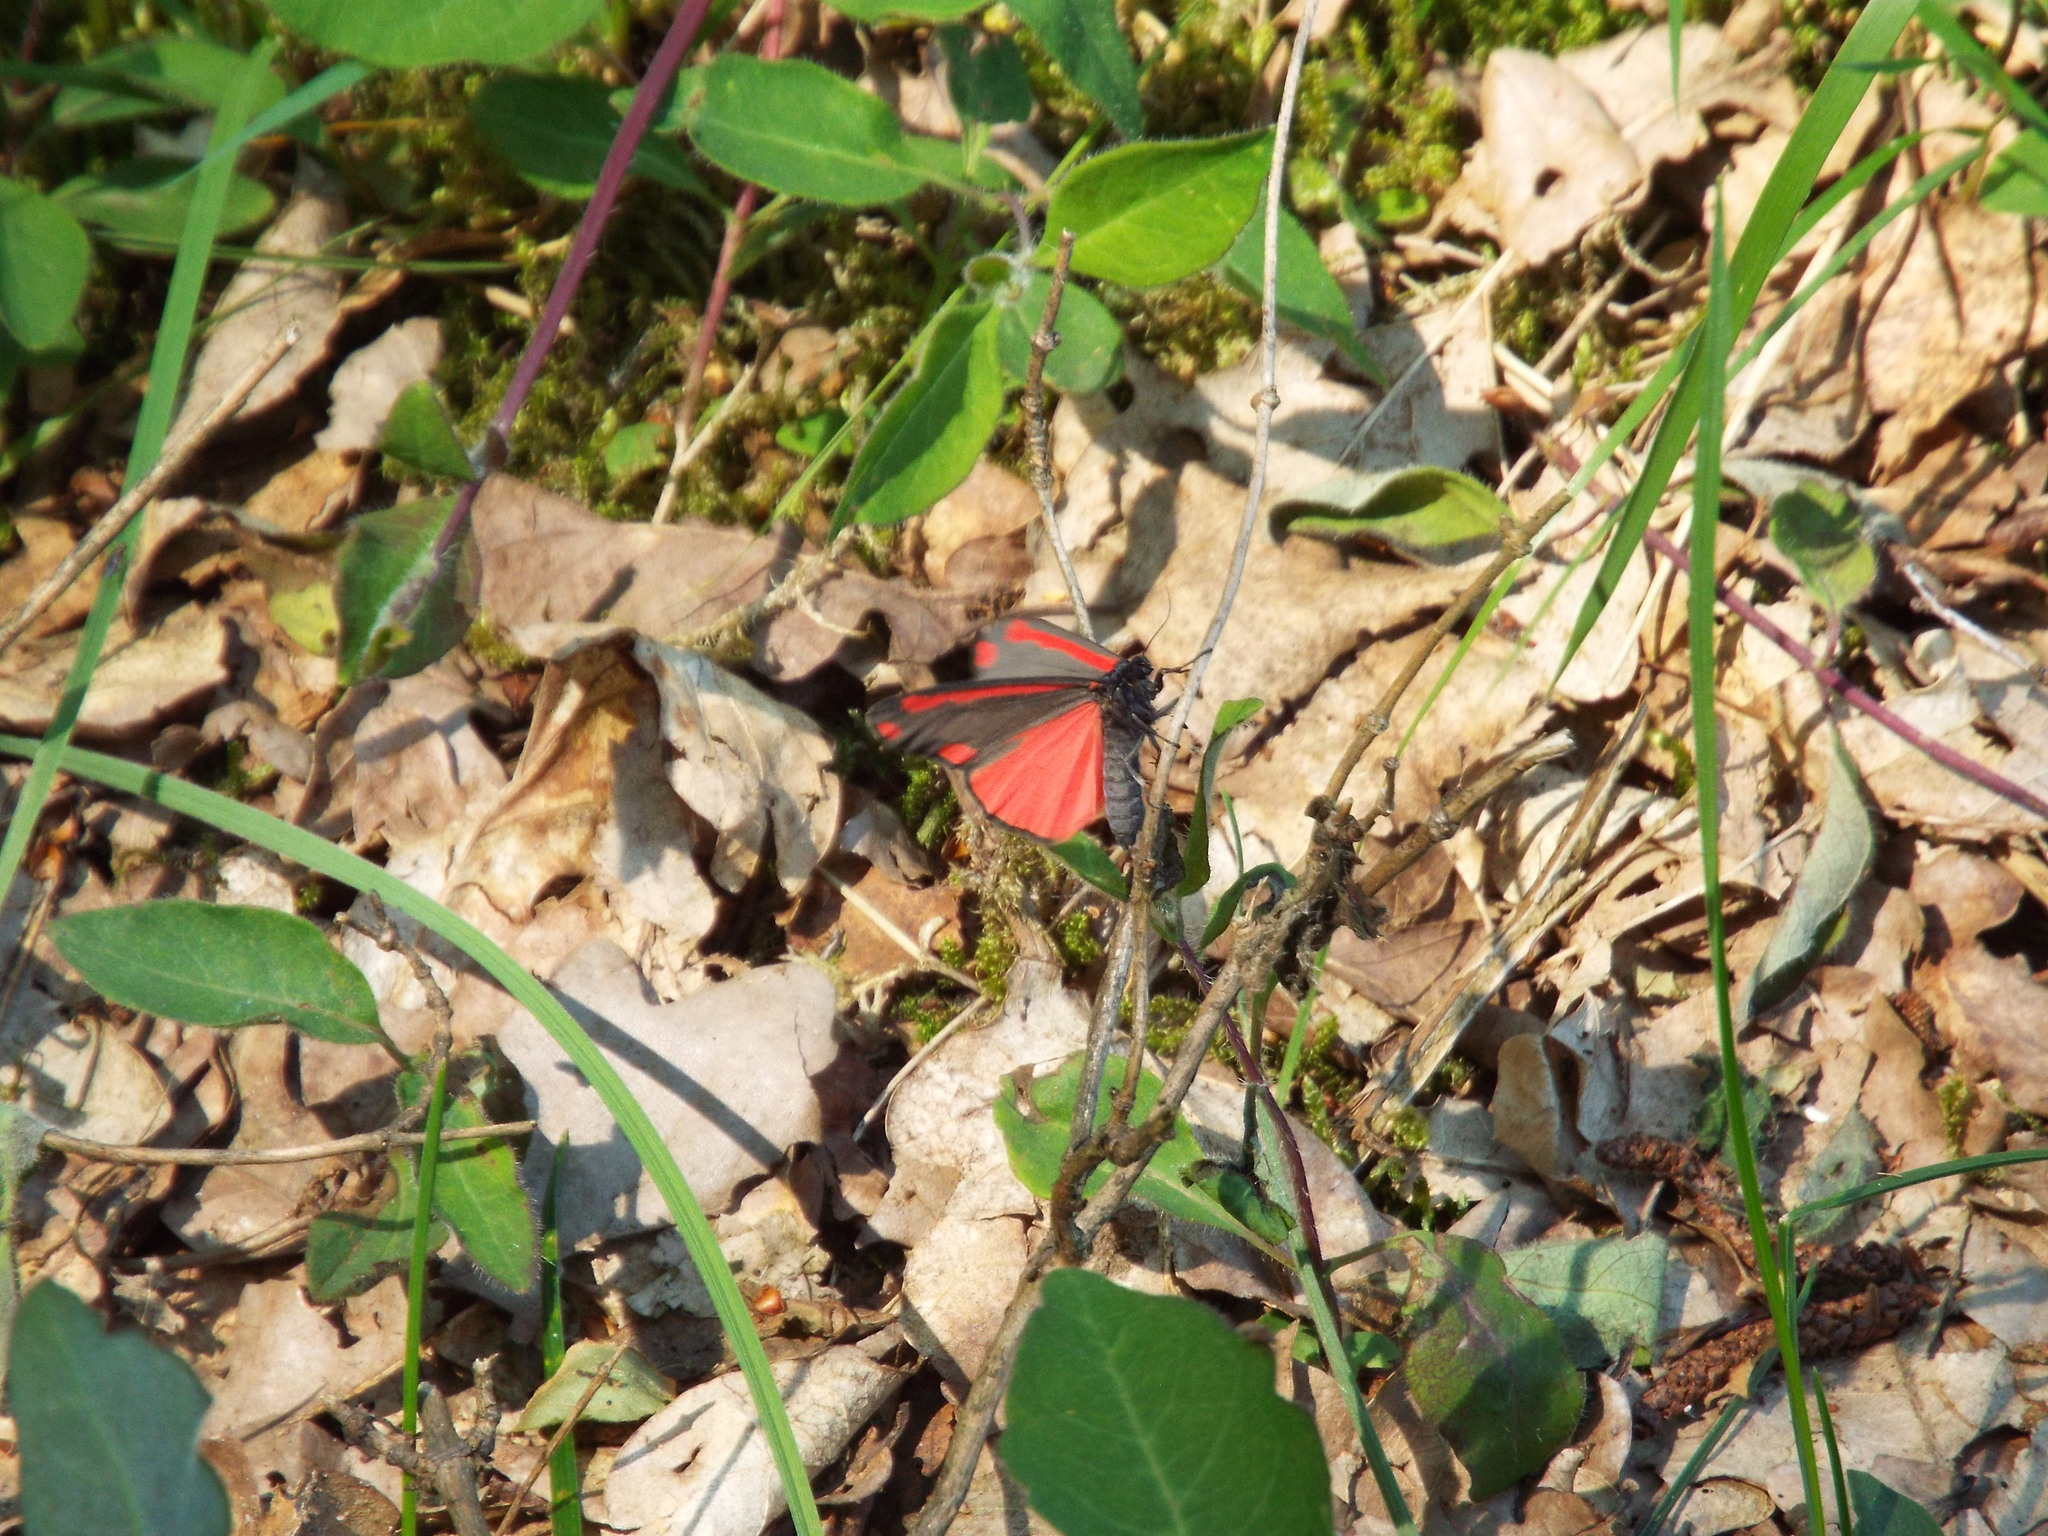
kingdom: Animalia
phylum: Arthropoda
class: Insecta
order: Lepidoptera
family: Erebidae
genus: Tyria
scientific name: Tyria jacobaeae
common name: Cinnabar
